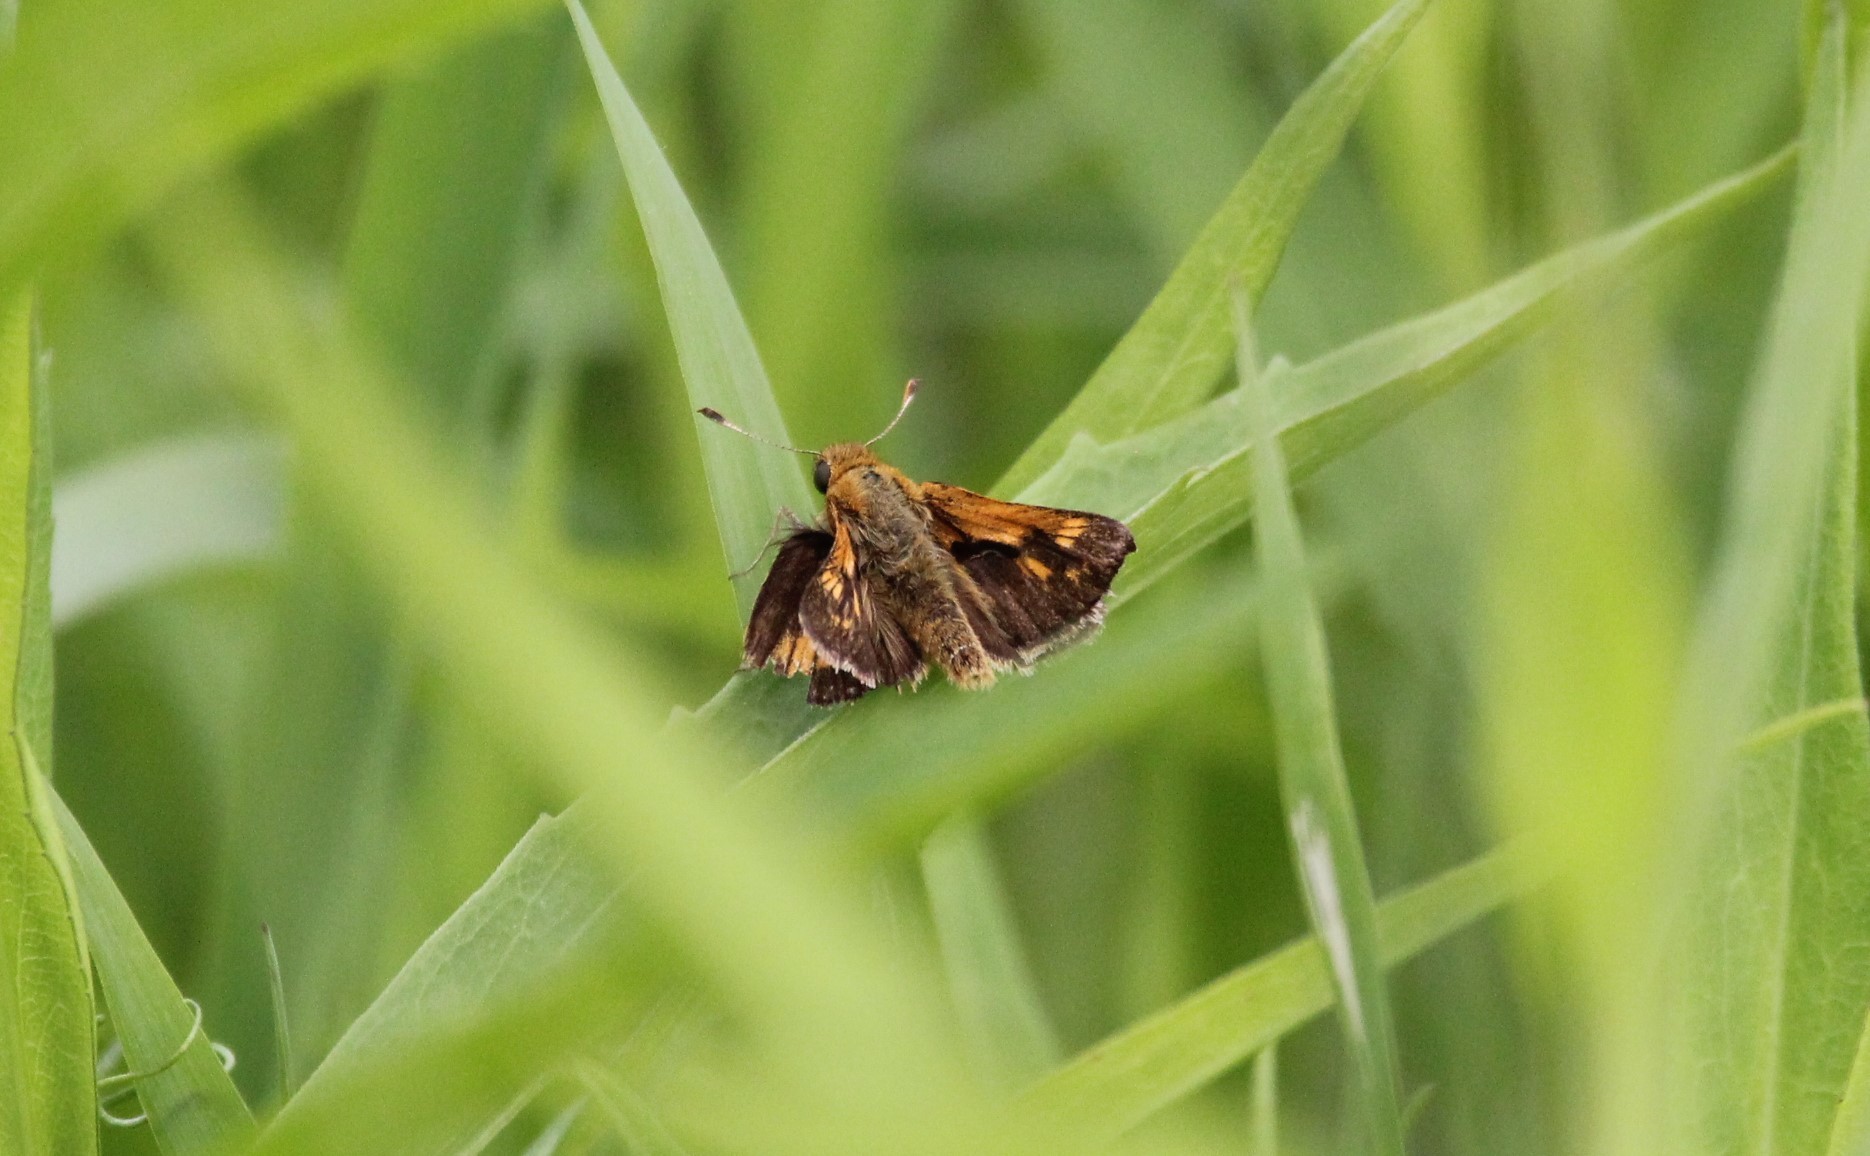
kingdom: Animalia
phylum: Arthropoda
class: Insecta
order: Lepidoptera
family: Hesperiidae
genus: Polites
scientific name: Polites coras
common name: Peck's skipper
